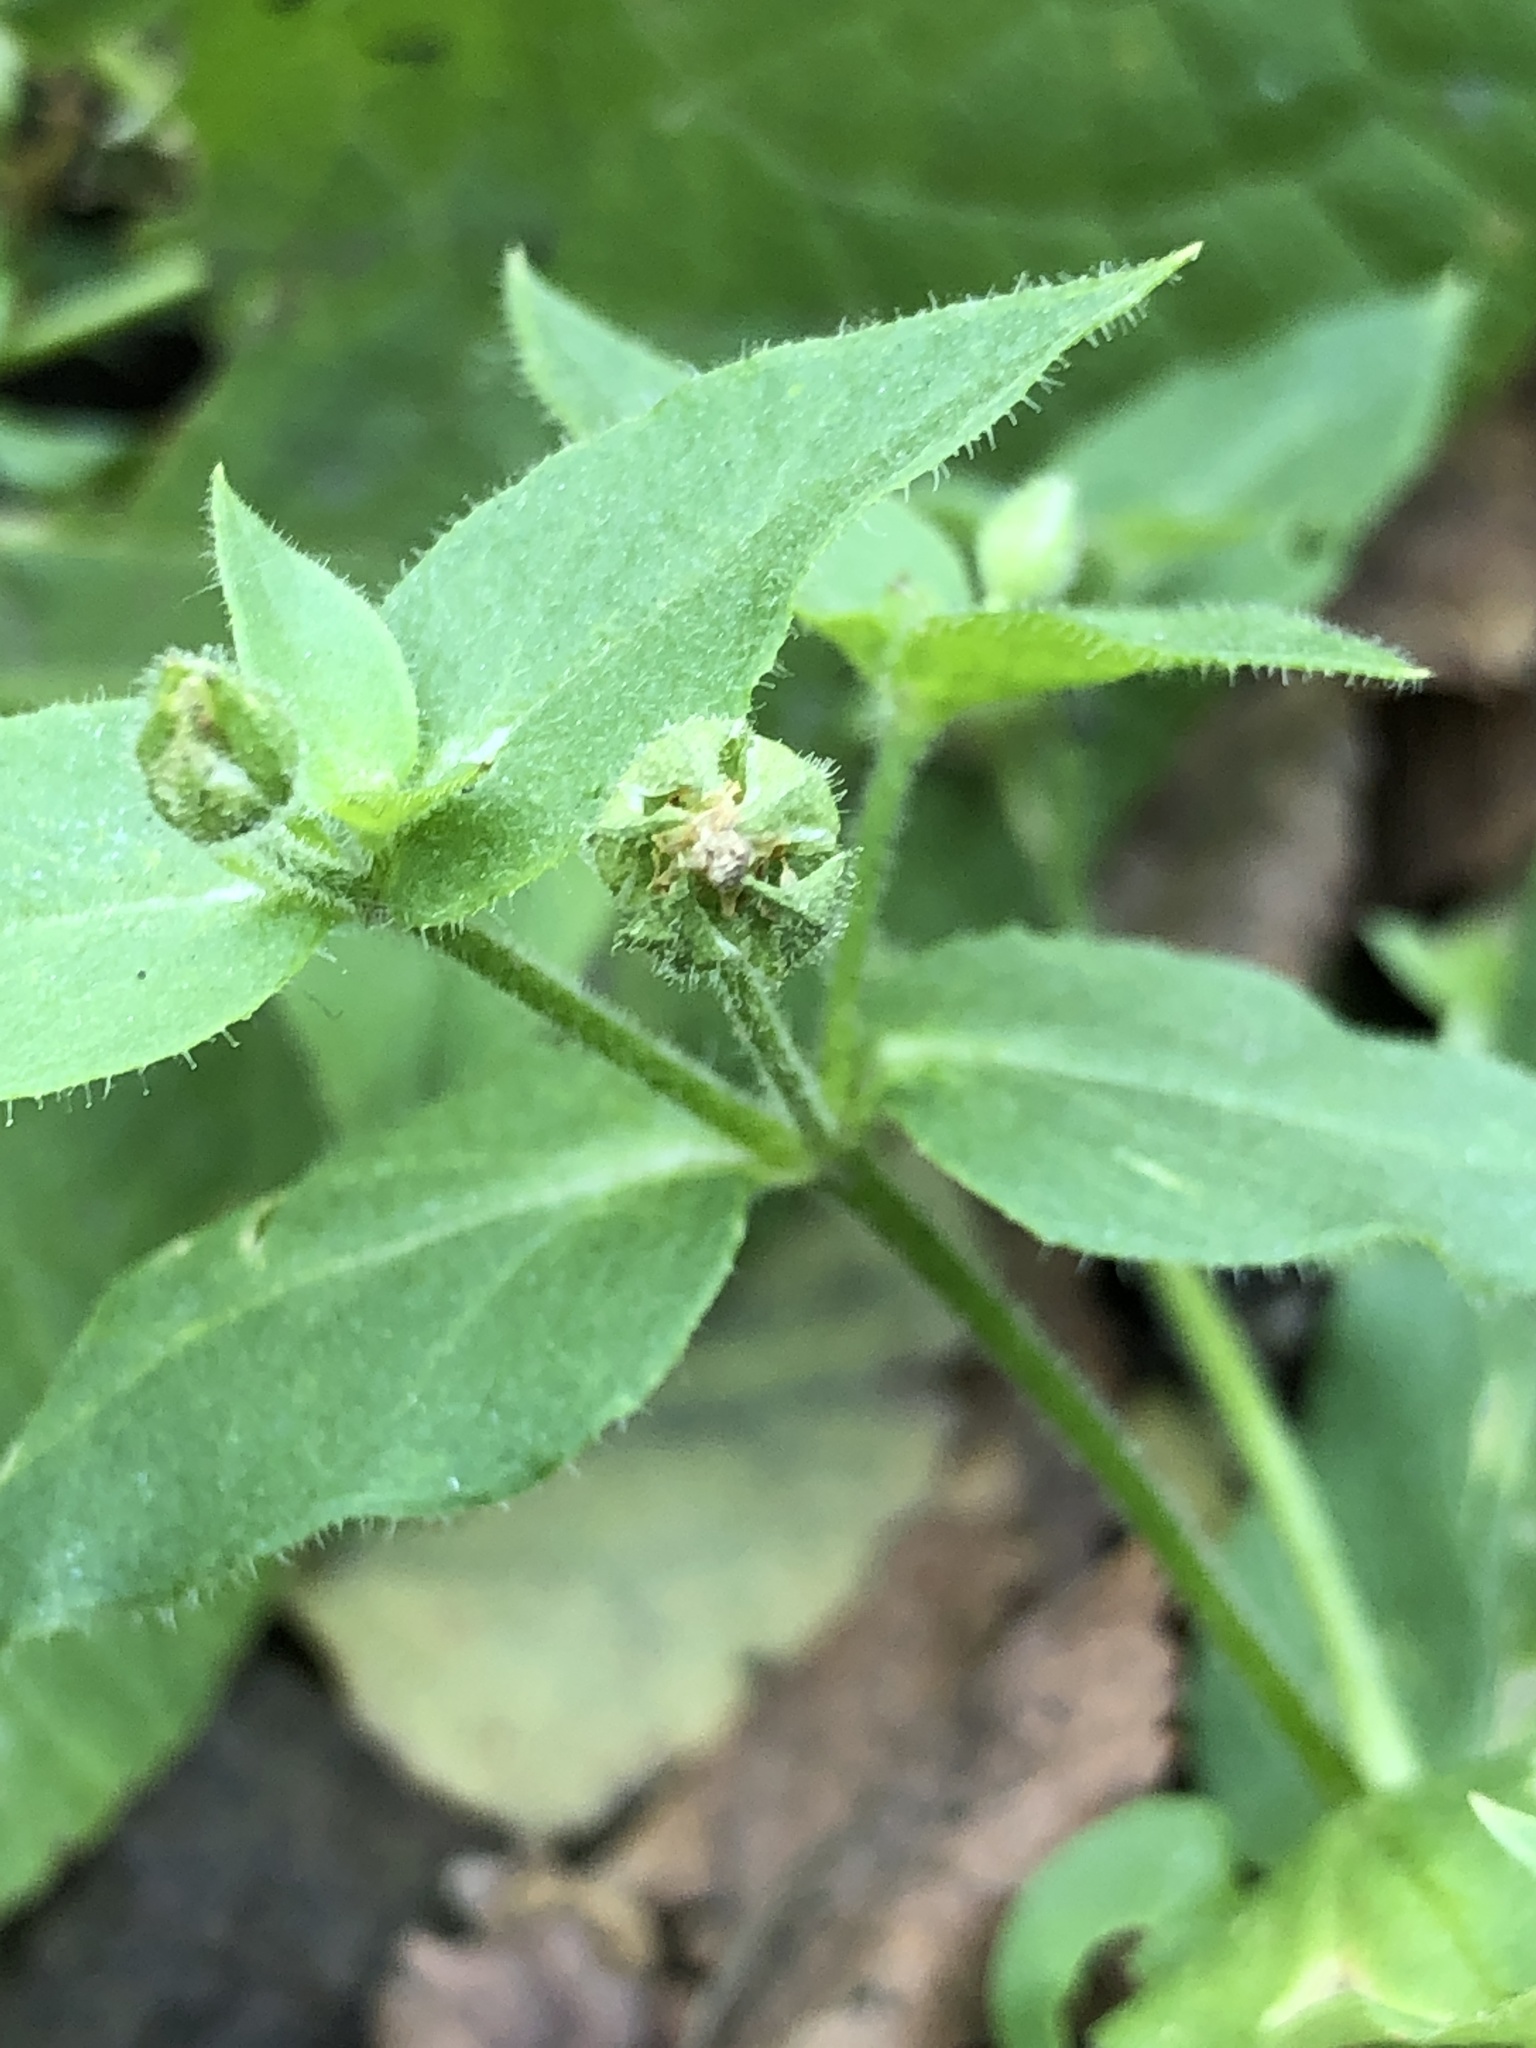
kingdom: Plantae
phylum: Tracheophyta
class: Magnoliopsida
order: Caryophyllales
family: Caryophyllaceae
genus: Stellaria
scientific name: Stellaria aquatica
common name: Water chickweed
